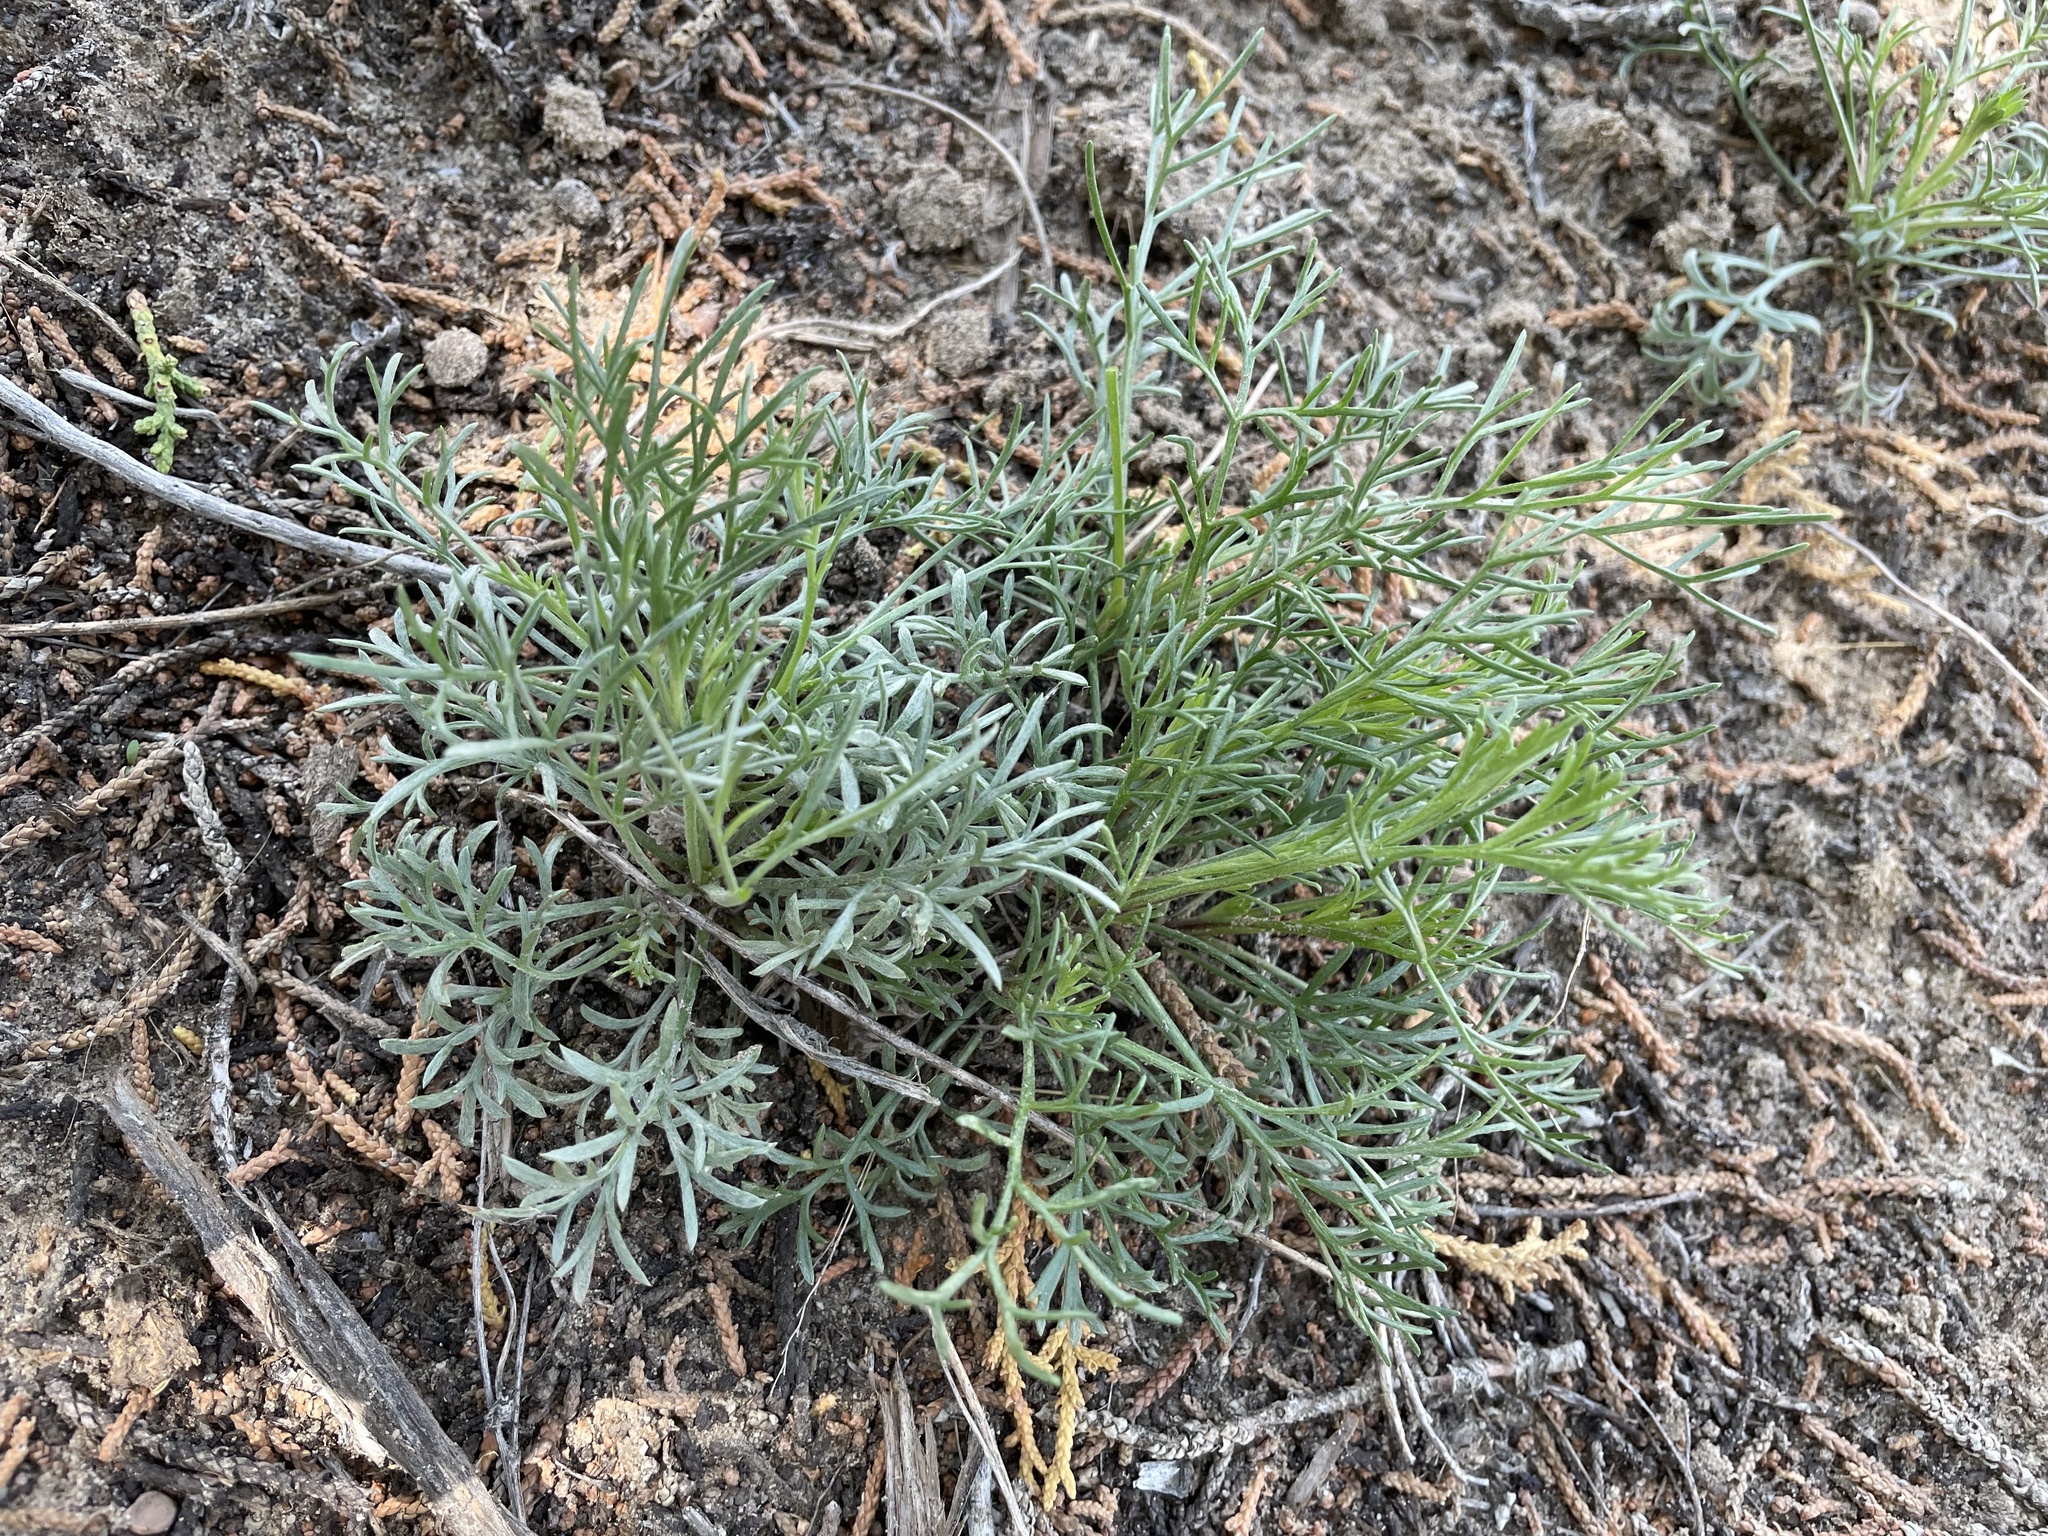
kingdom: Plantae
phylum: Tracheophyta
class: Magnoliopsida
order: Asterales
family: Asteraceae
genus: Hymenopappus
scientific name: Hymenopappus filifolius
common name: Columbia cutleaf
